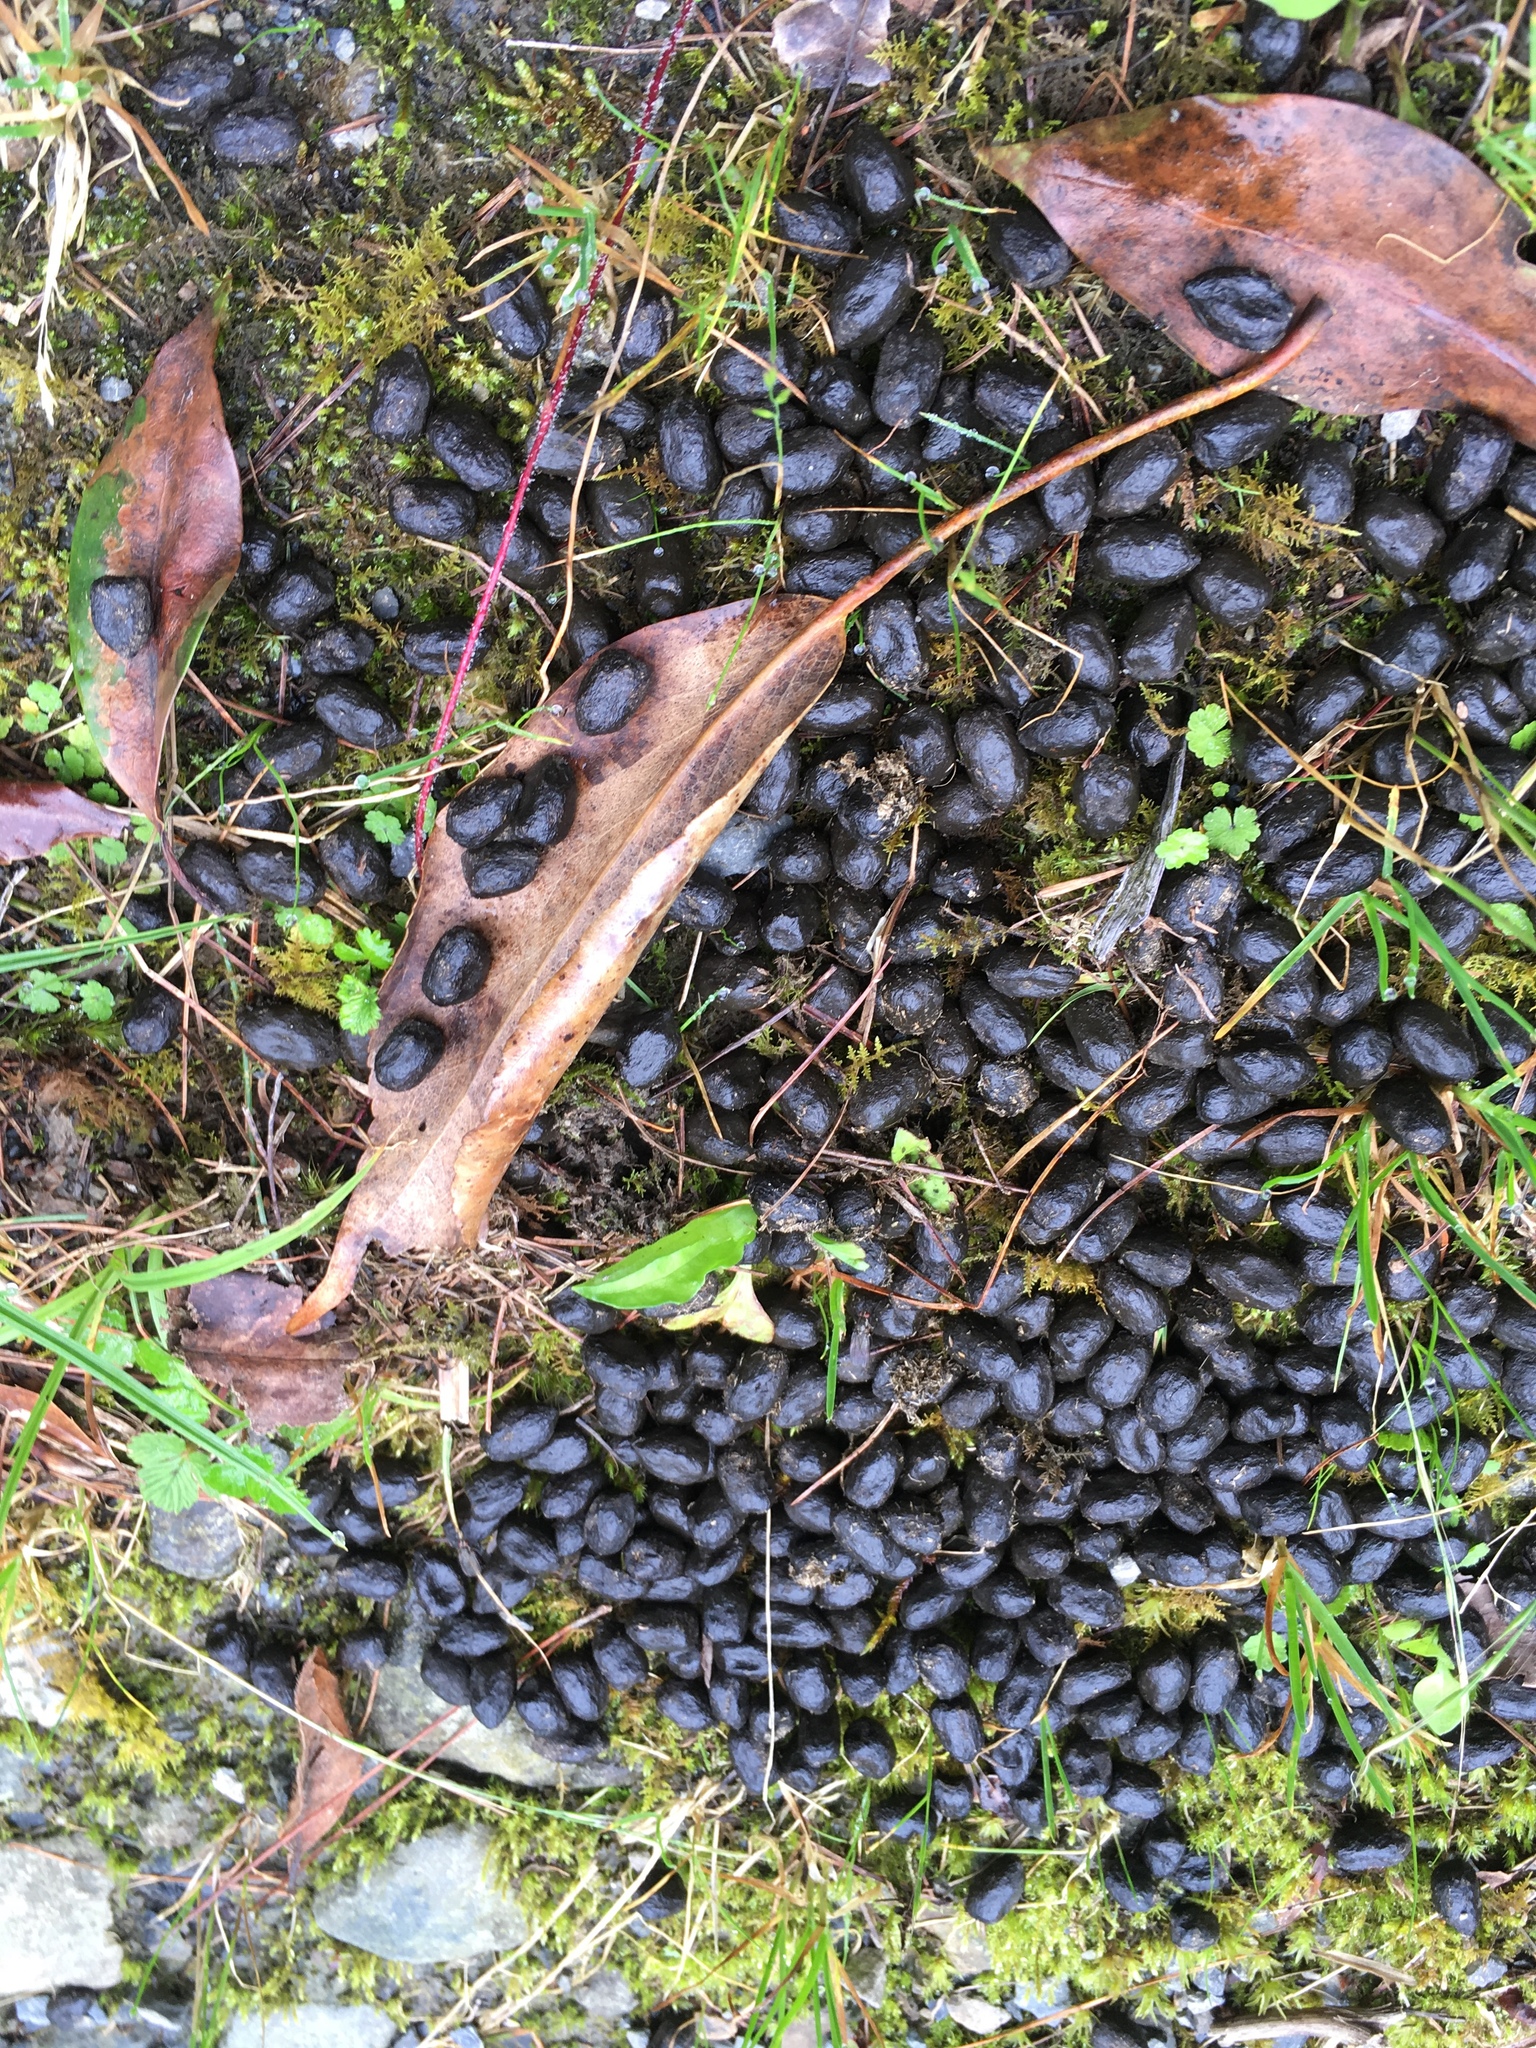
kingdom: Animalia
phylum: Chordata
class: Mammalia
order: Artiodactyla
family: Cervidae
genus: Muntiacus
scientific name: Muntiacus reevesi
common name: Reeves' muntjac
